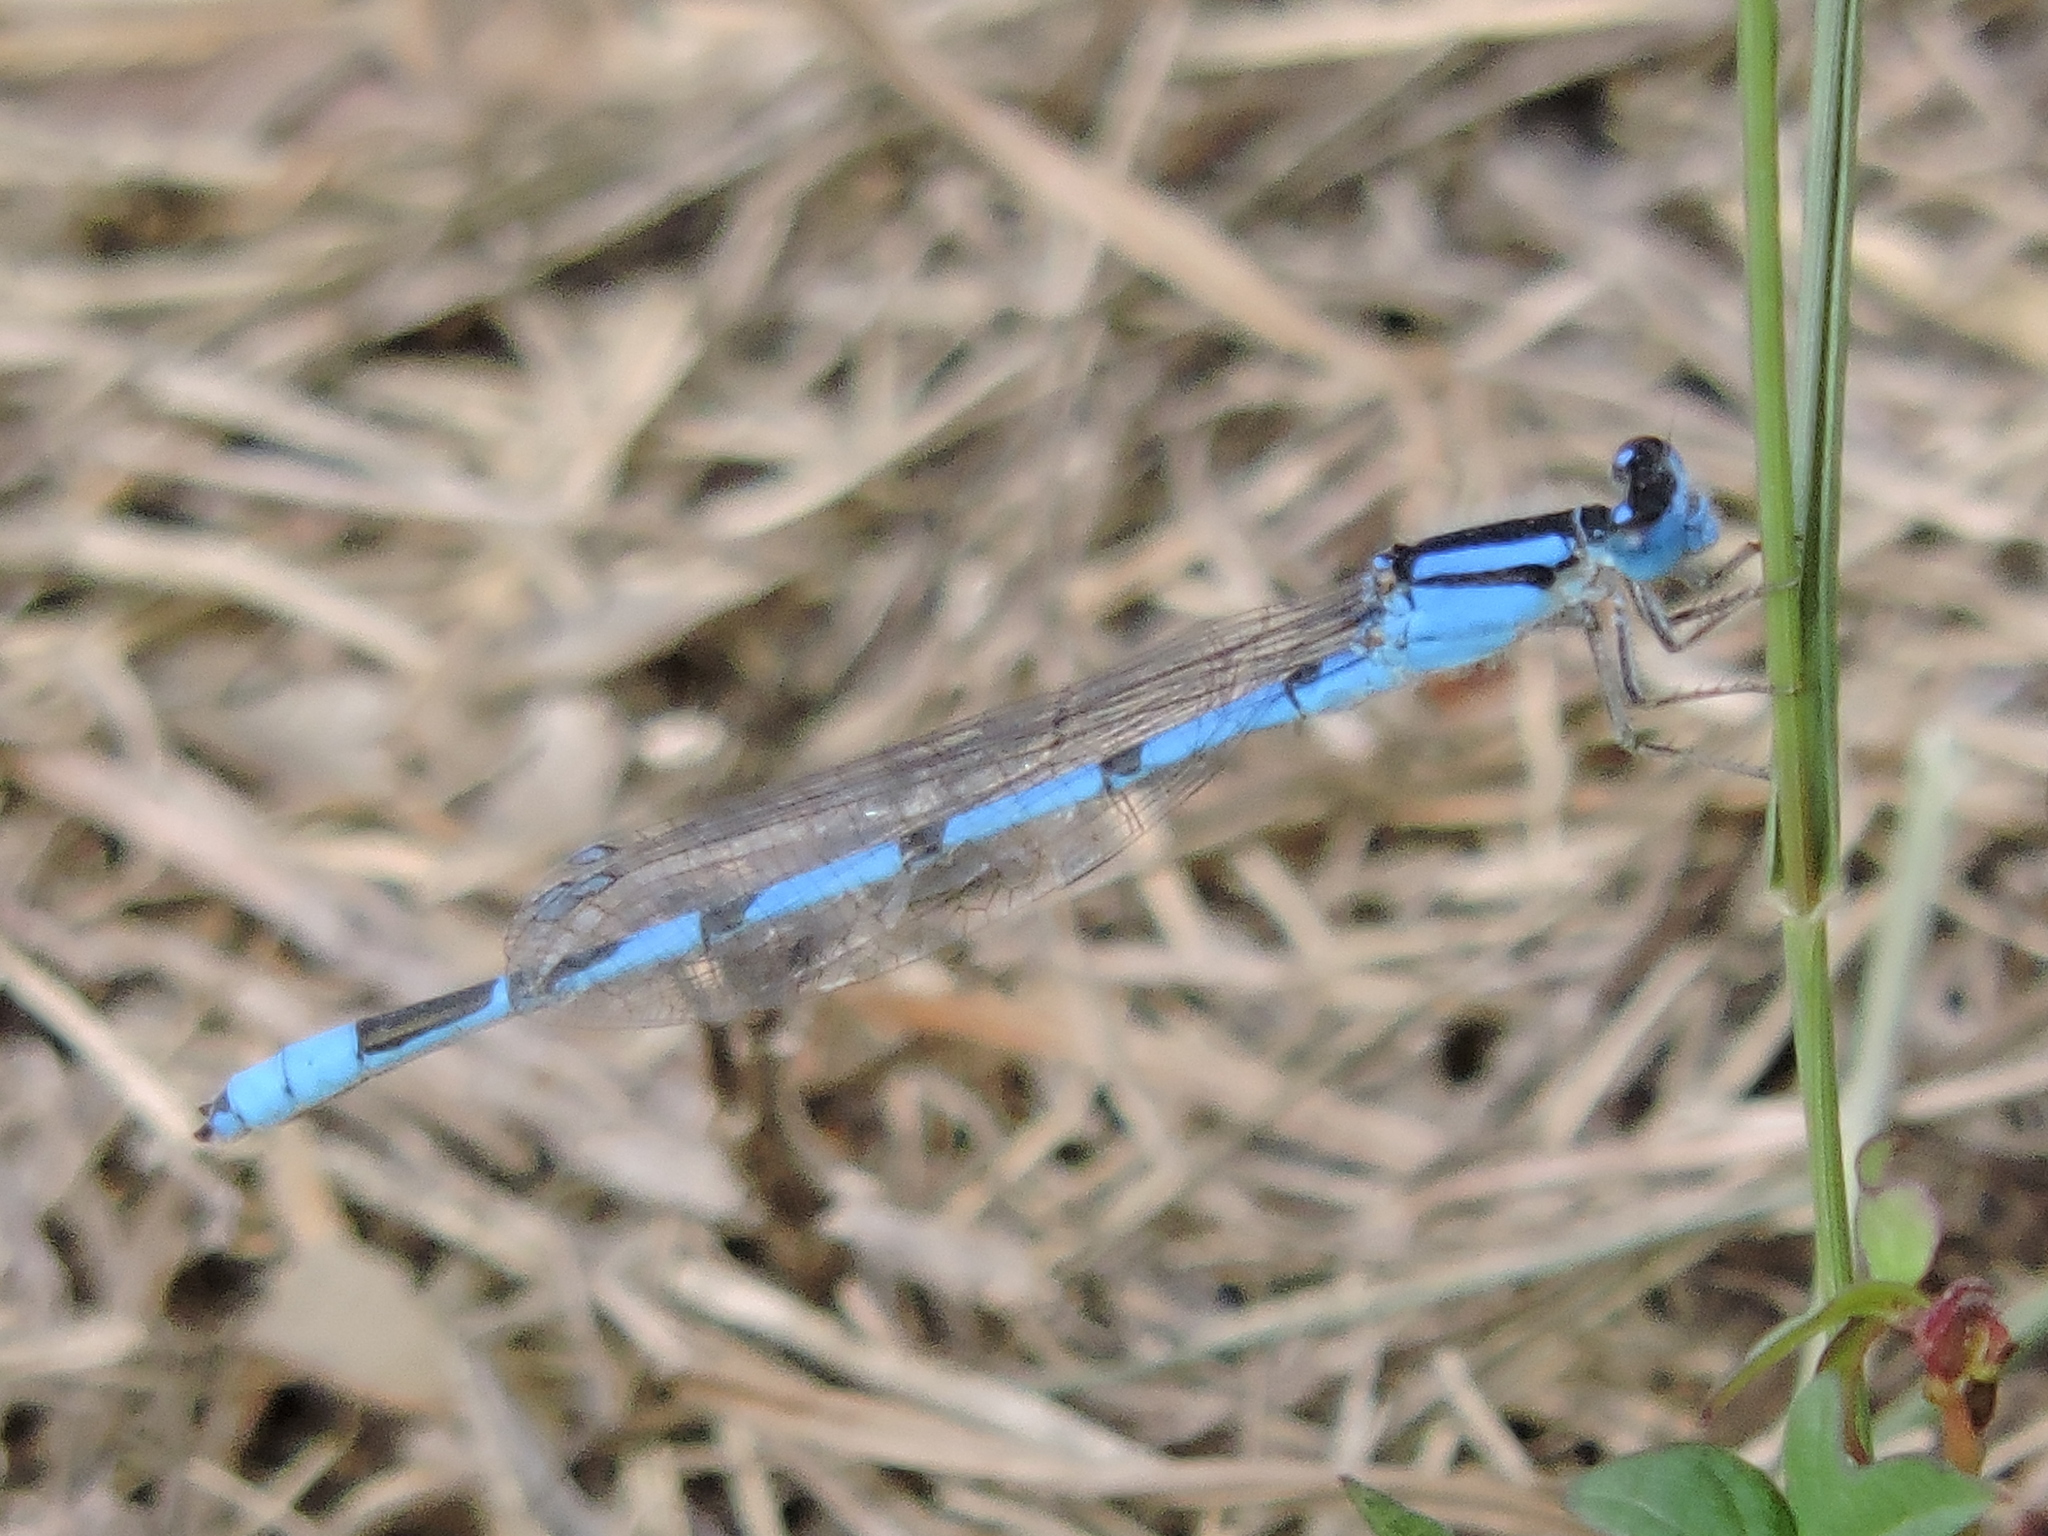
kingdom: Animalia
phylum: Arthropoda
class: Insecta
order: Odonata
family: Coenagrionidae
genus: Enallagma
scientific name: Enallagma civile
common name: Damselfly
